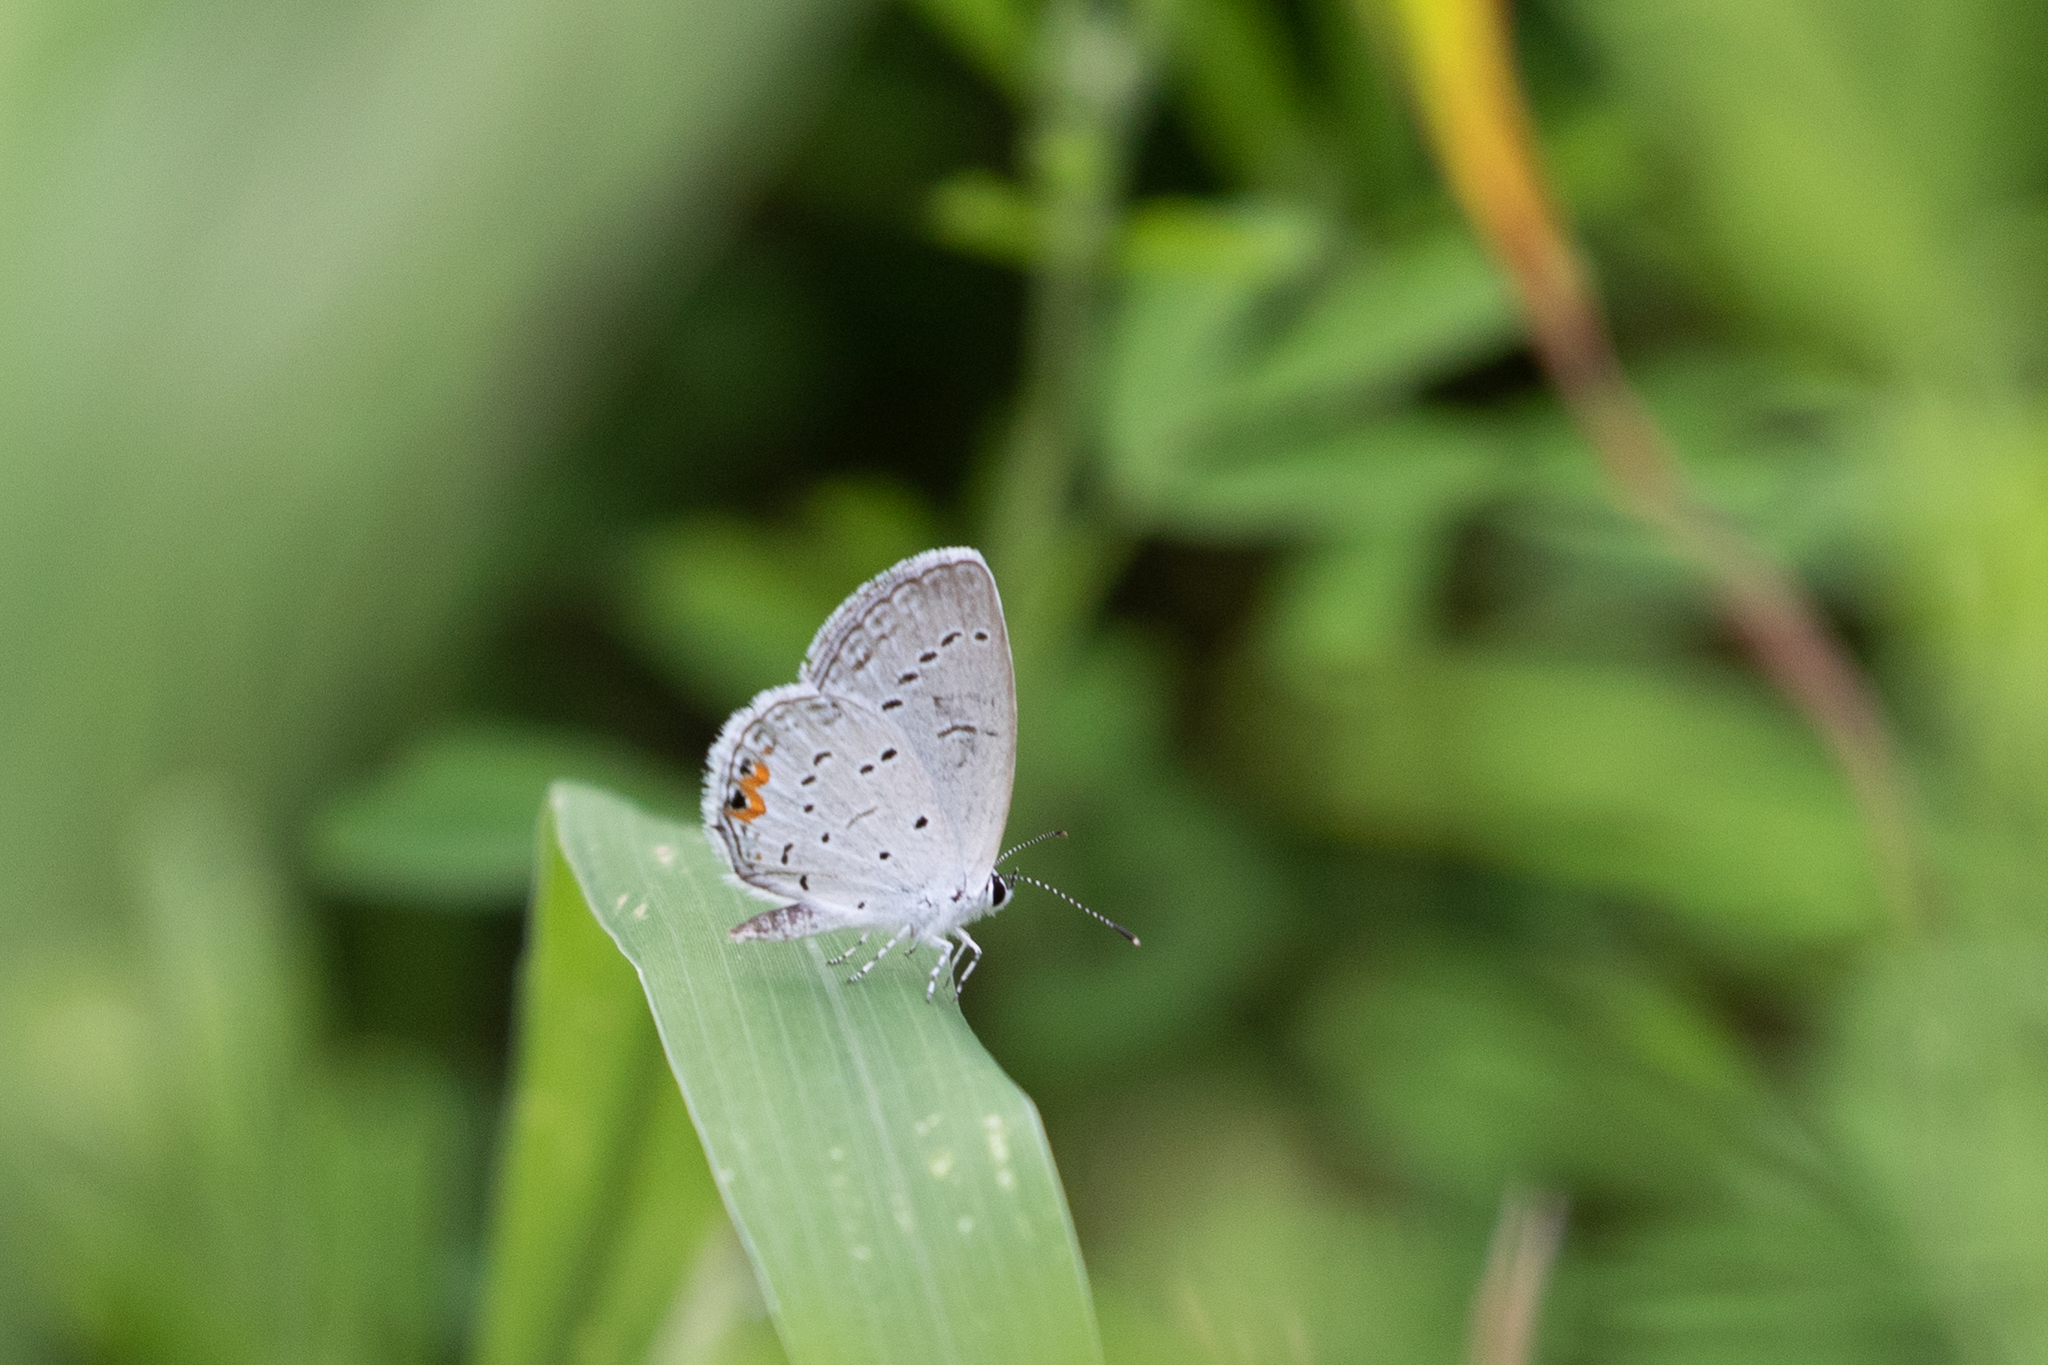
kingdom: Animalia
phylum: Arthropoda
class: Insecta
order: Lepidoptera
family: Lycaenidae
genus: Elkalyce
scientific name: Elkalyce comyntas
